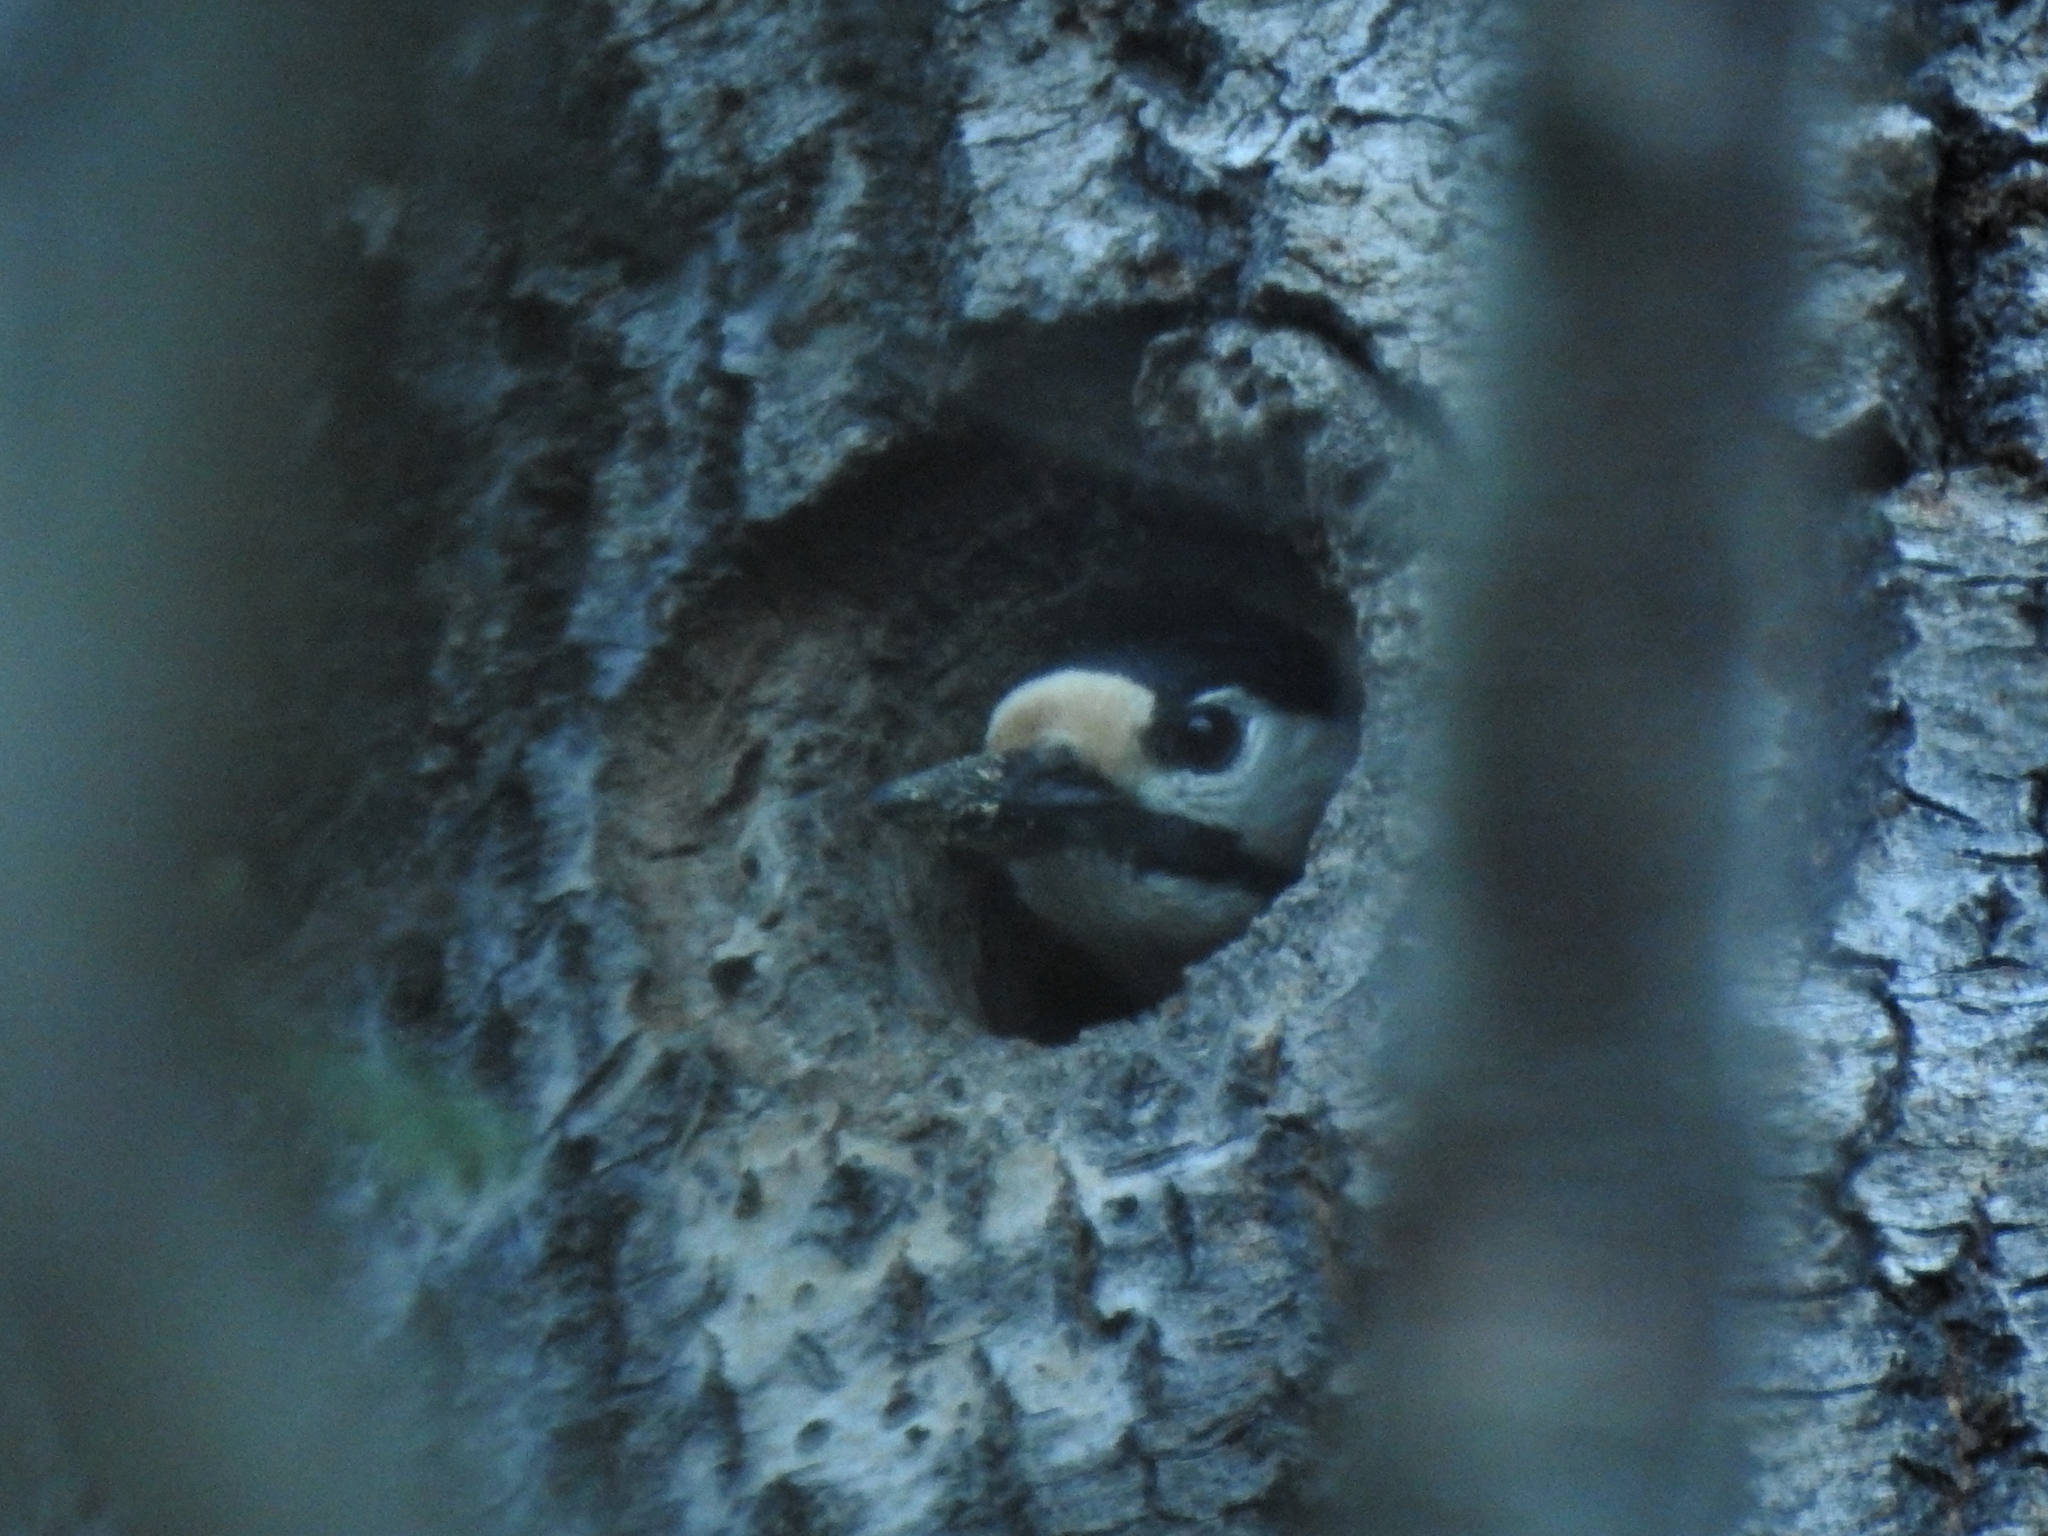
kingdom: Animalia
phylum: Chordata
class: Aves
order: Piciformes
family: Picidae
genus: Dendrocopos
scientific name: Dendrocopos major
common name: Great spotted woodpecker
